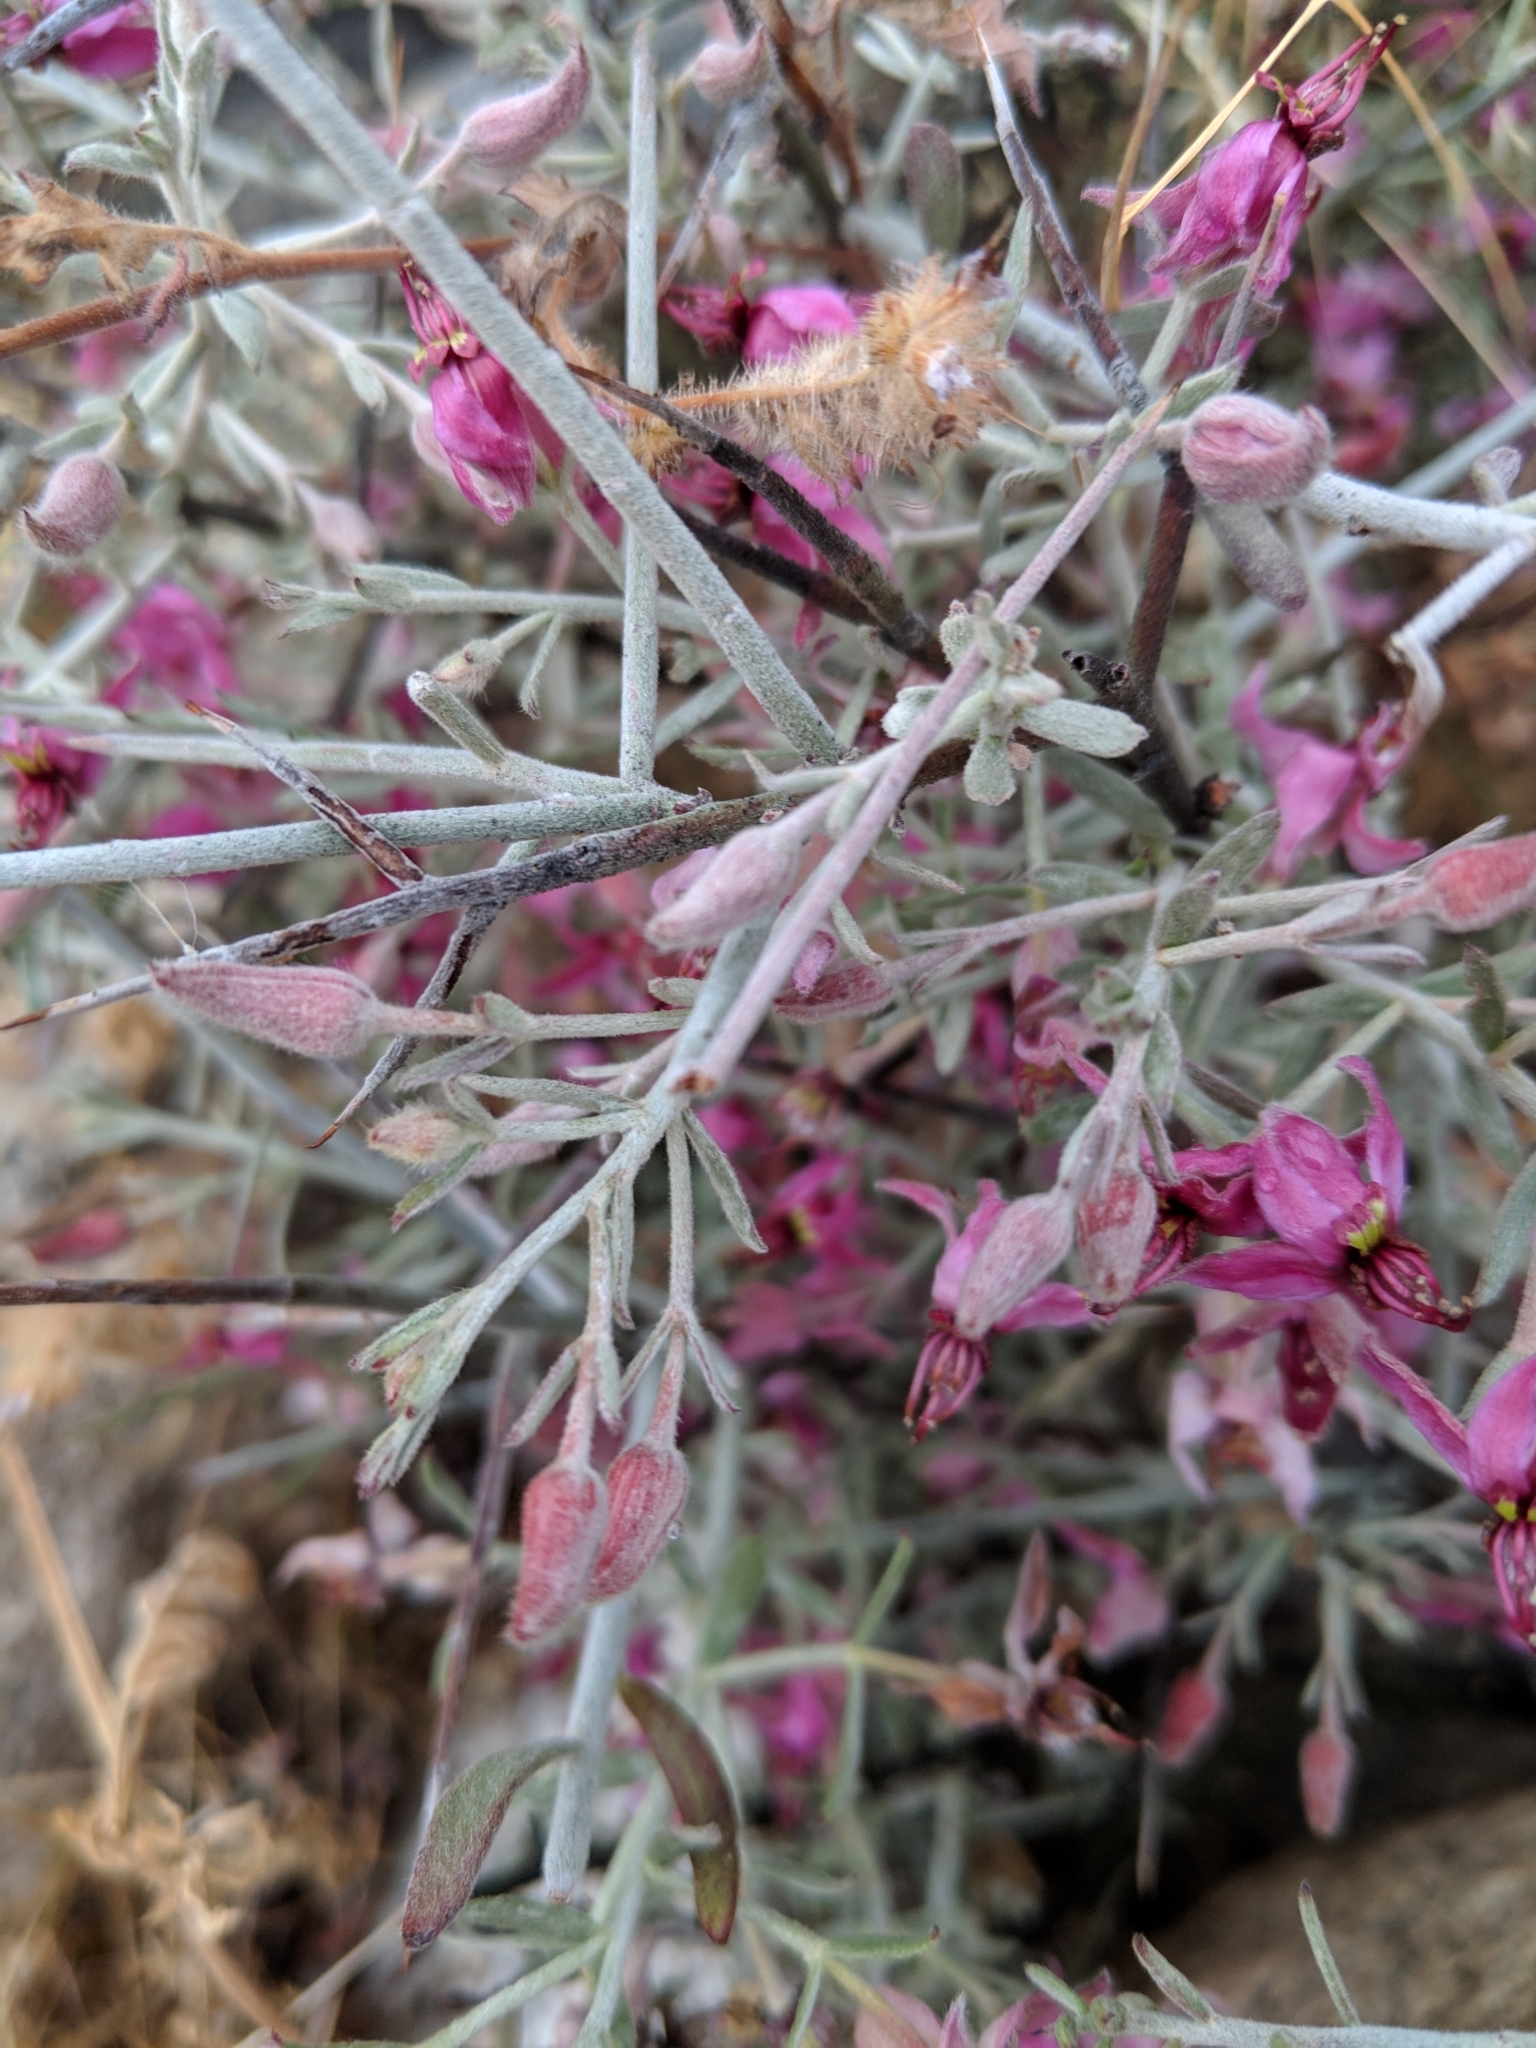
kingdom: Plantae
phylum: Tracheophyta
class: Magnoliopsida
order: Zygophyllales
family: Krameriaceae
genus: Krameria
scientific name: Krameria bicolor
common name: White ratany
